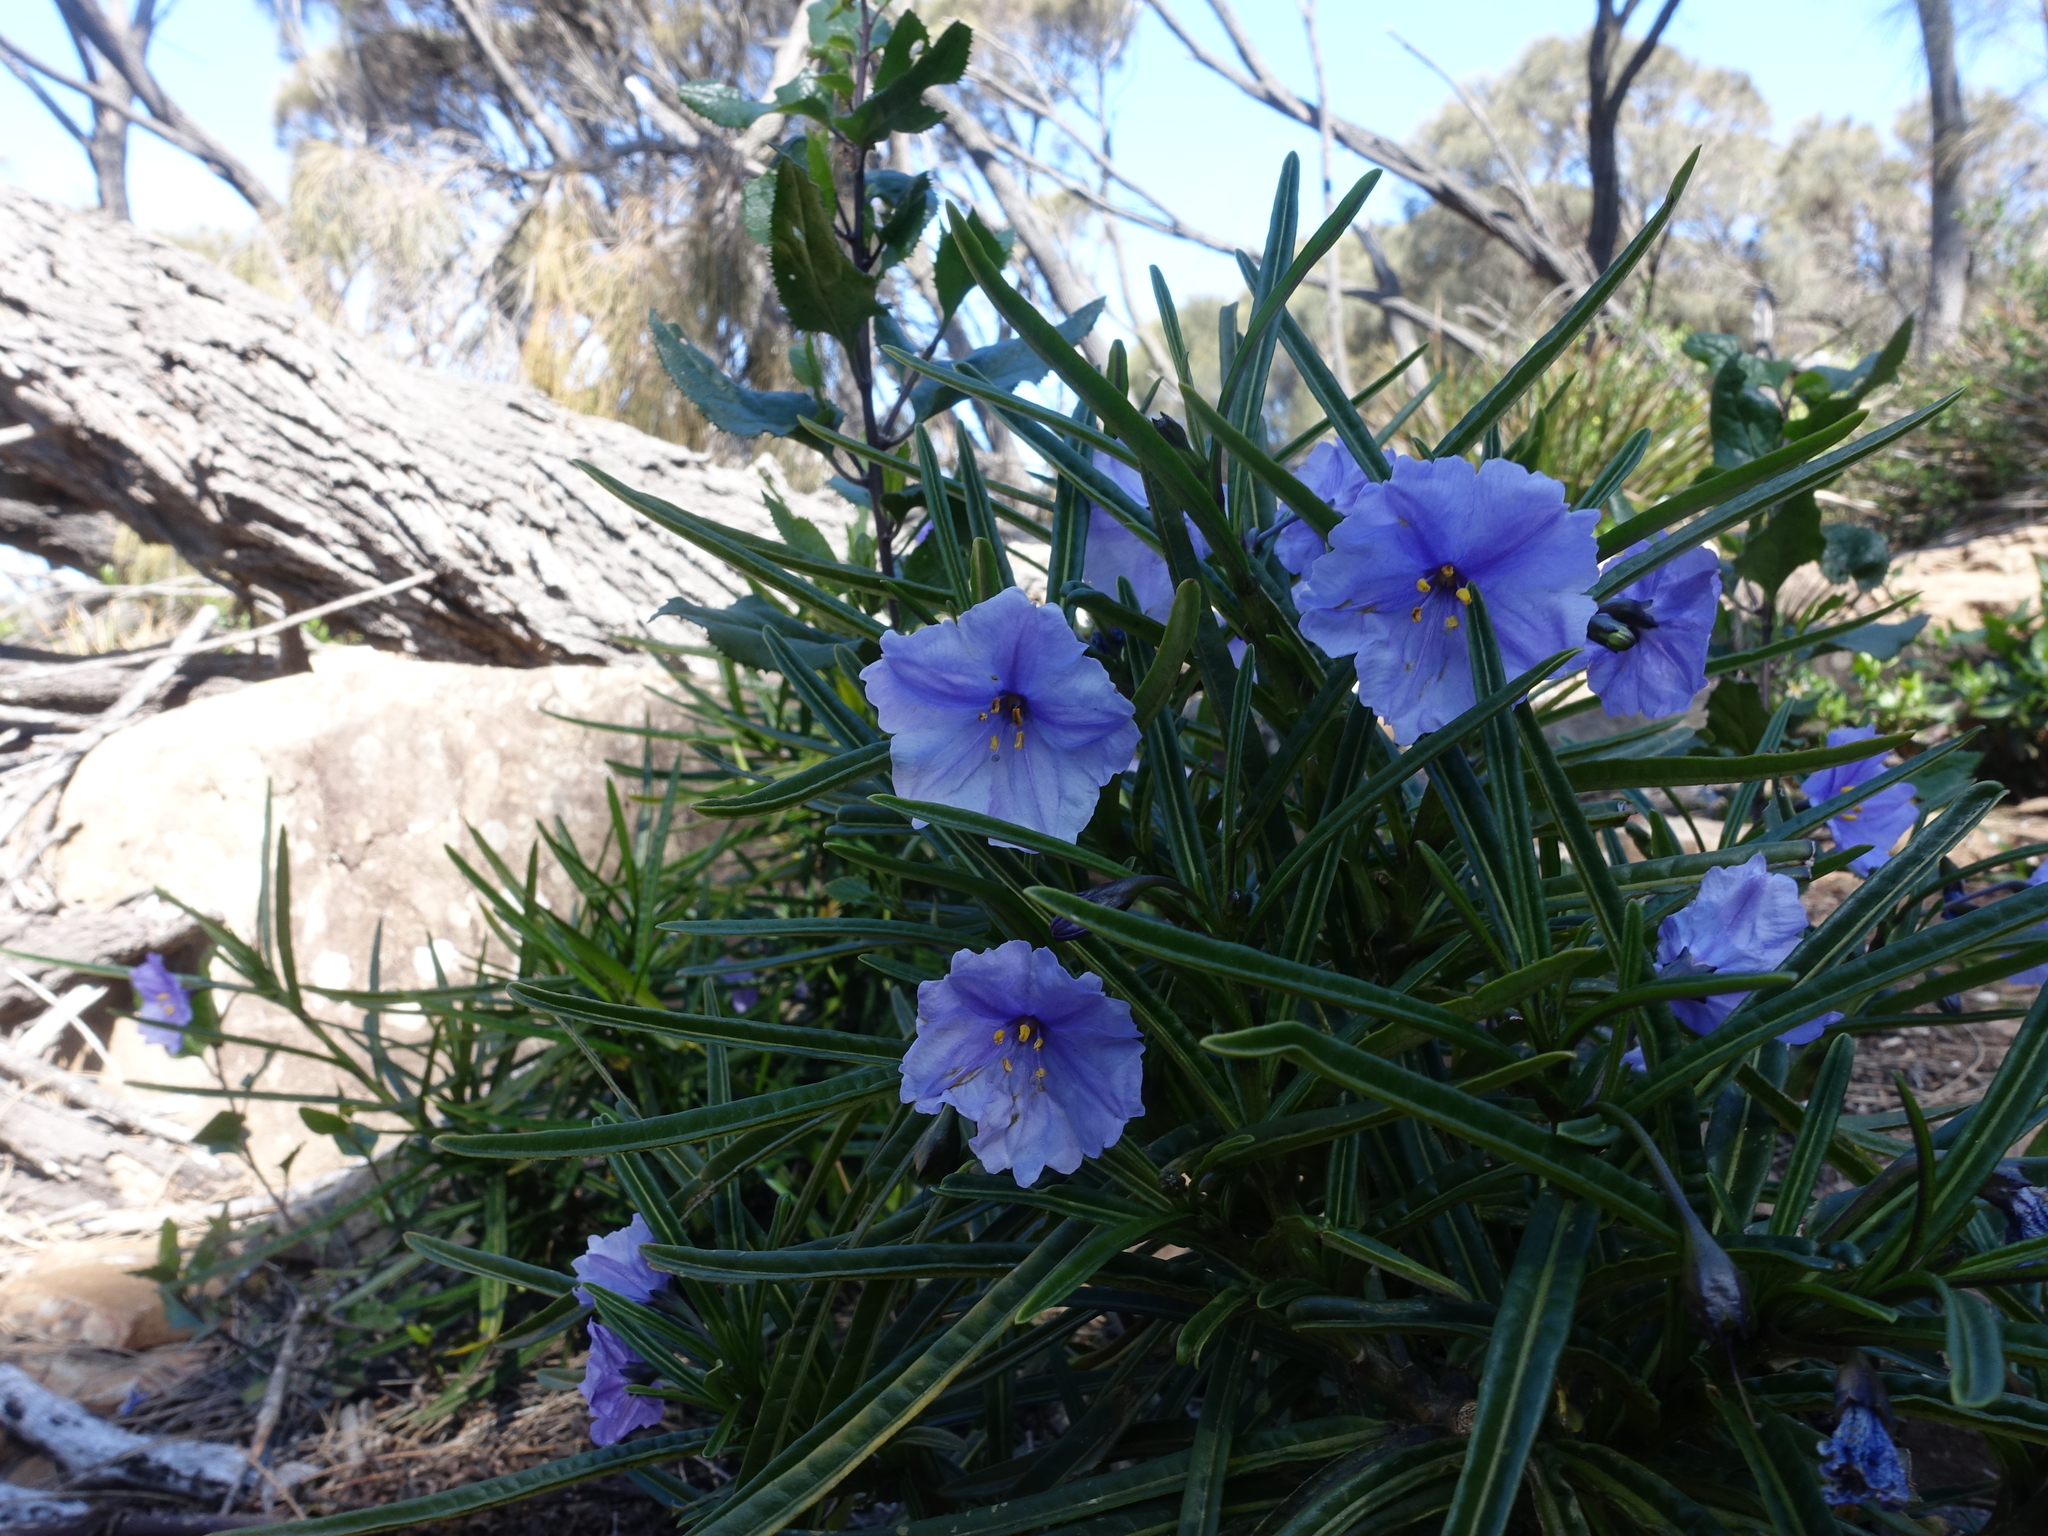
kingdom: Plantae
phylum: Tracheophyta
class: Magnoliopsida
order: Solanales
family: Solanaceae
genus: Solanum
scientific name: Solanum vescum
